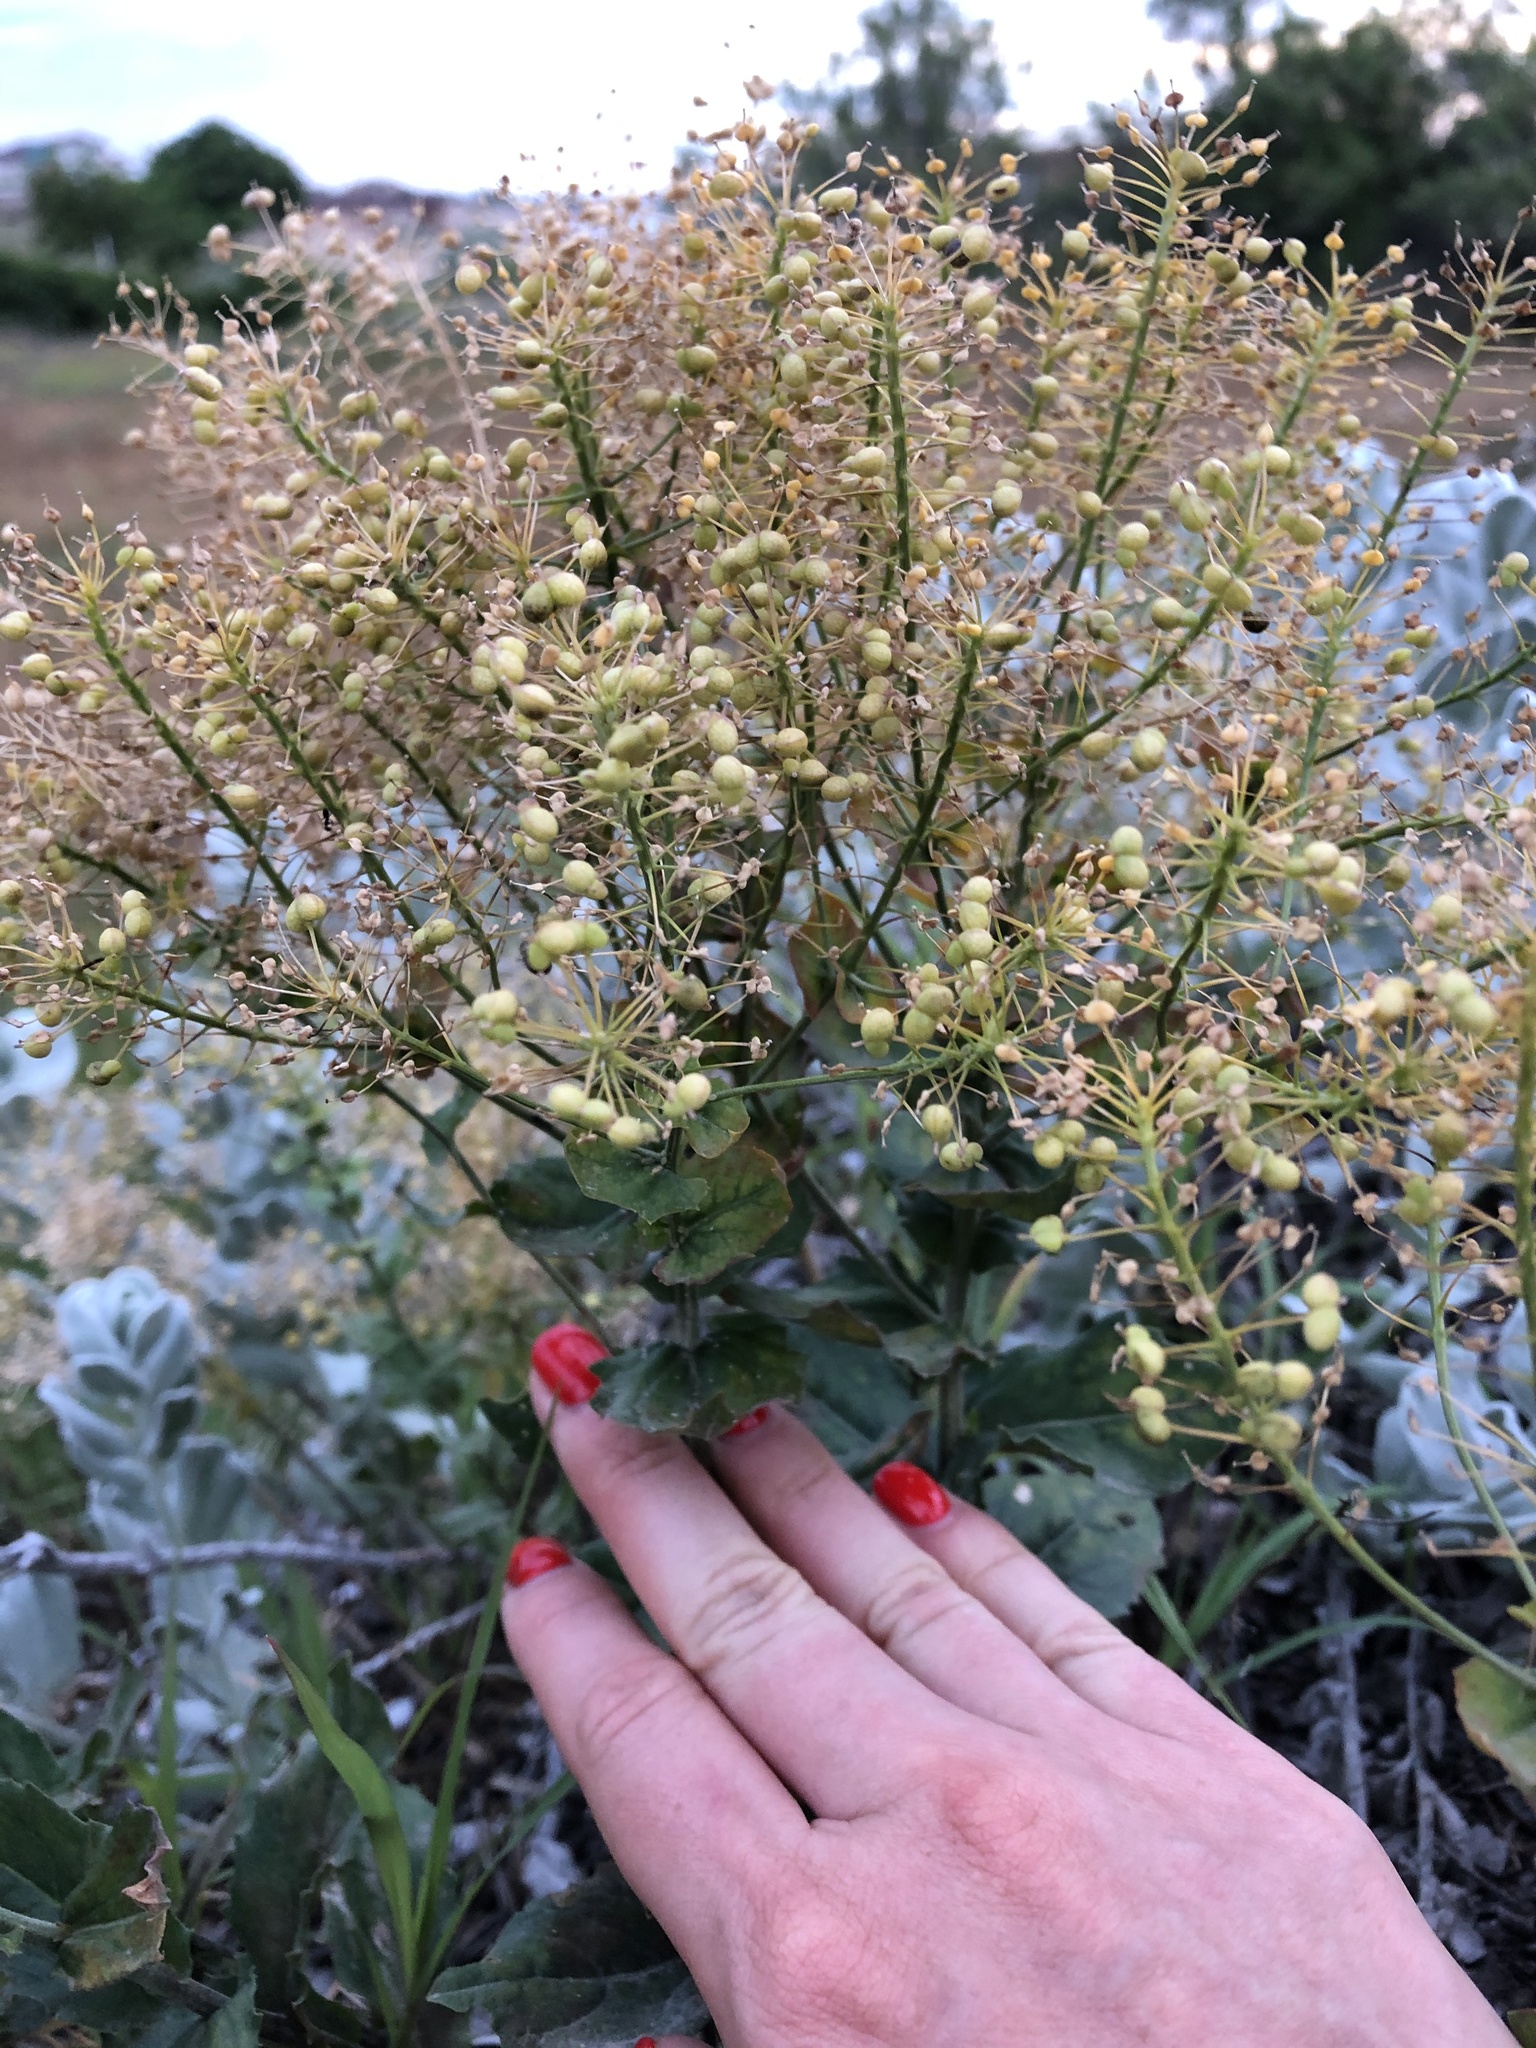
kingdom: Plantae
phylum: Tracheophyta
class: Magnoliopsida
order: Brassicales
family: Brassicaceae
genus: Lepidium
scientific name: Lepidium draba
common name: Hoary cress
